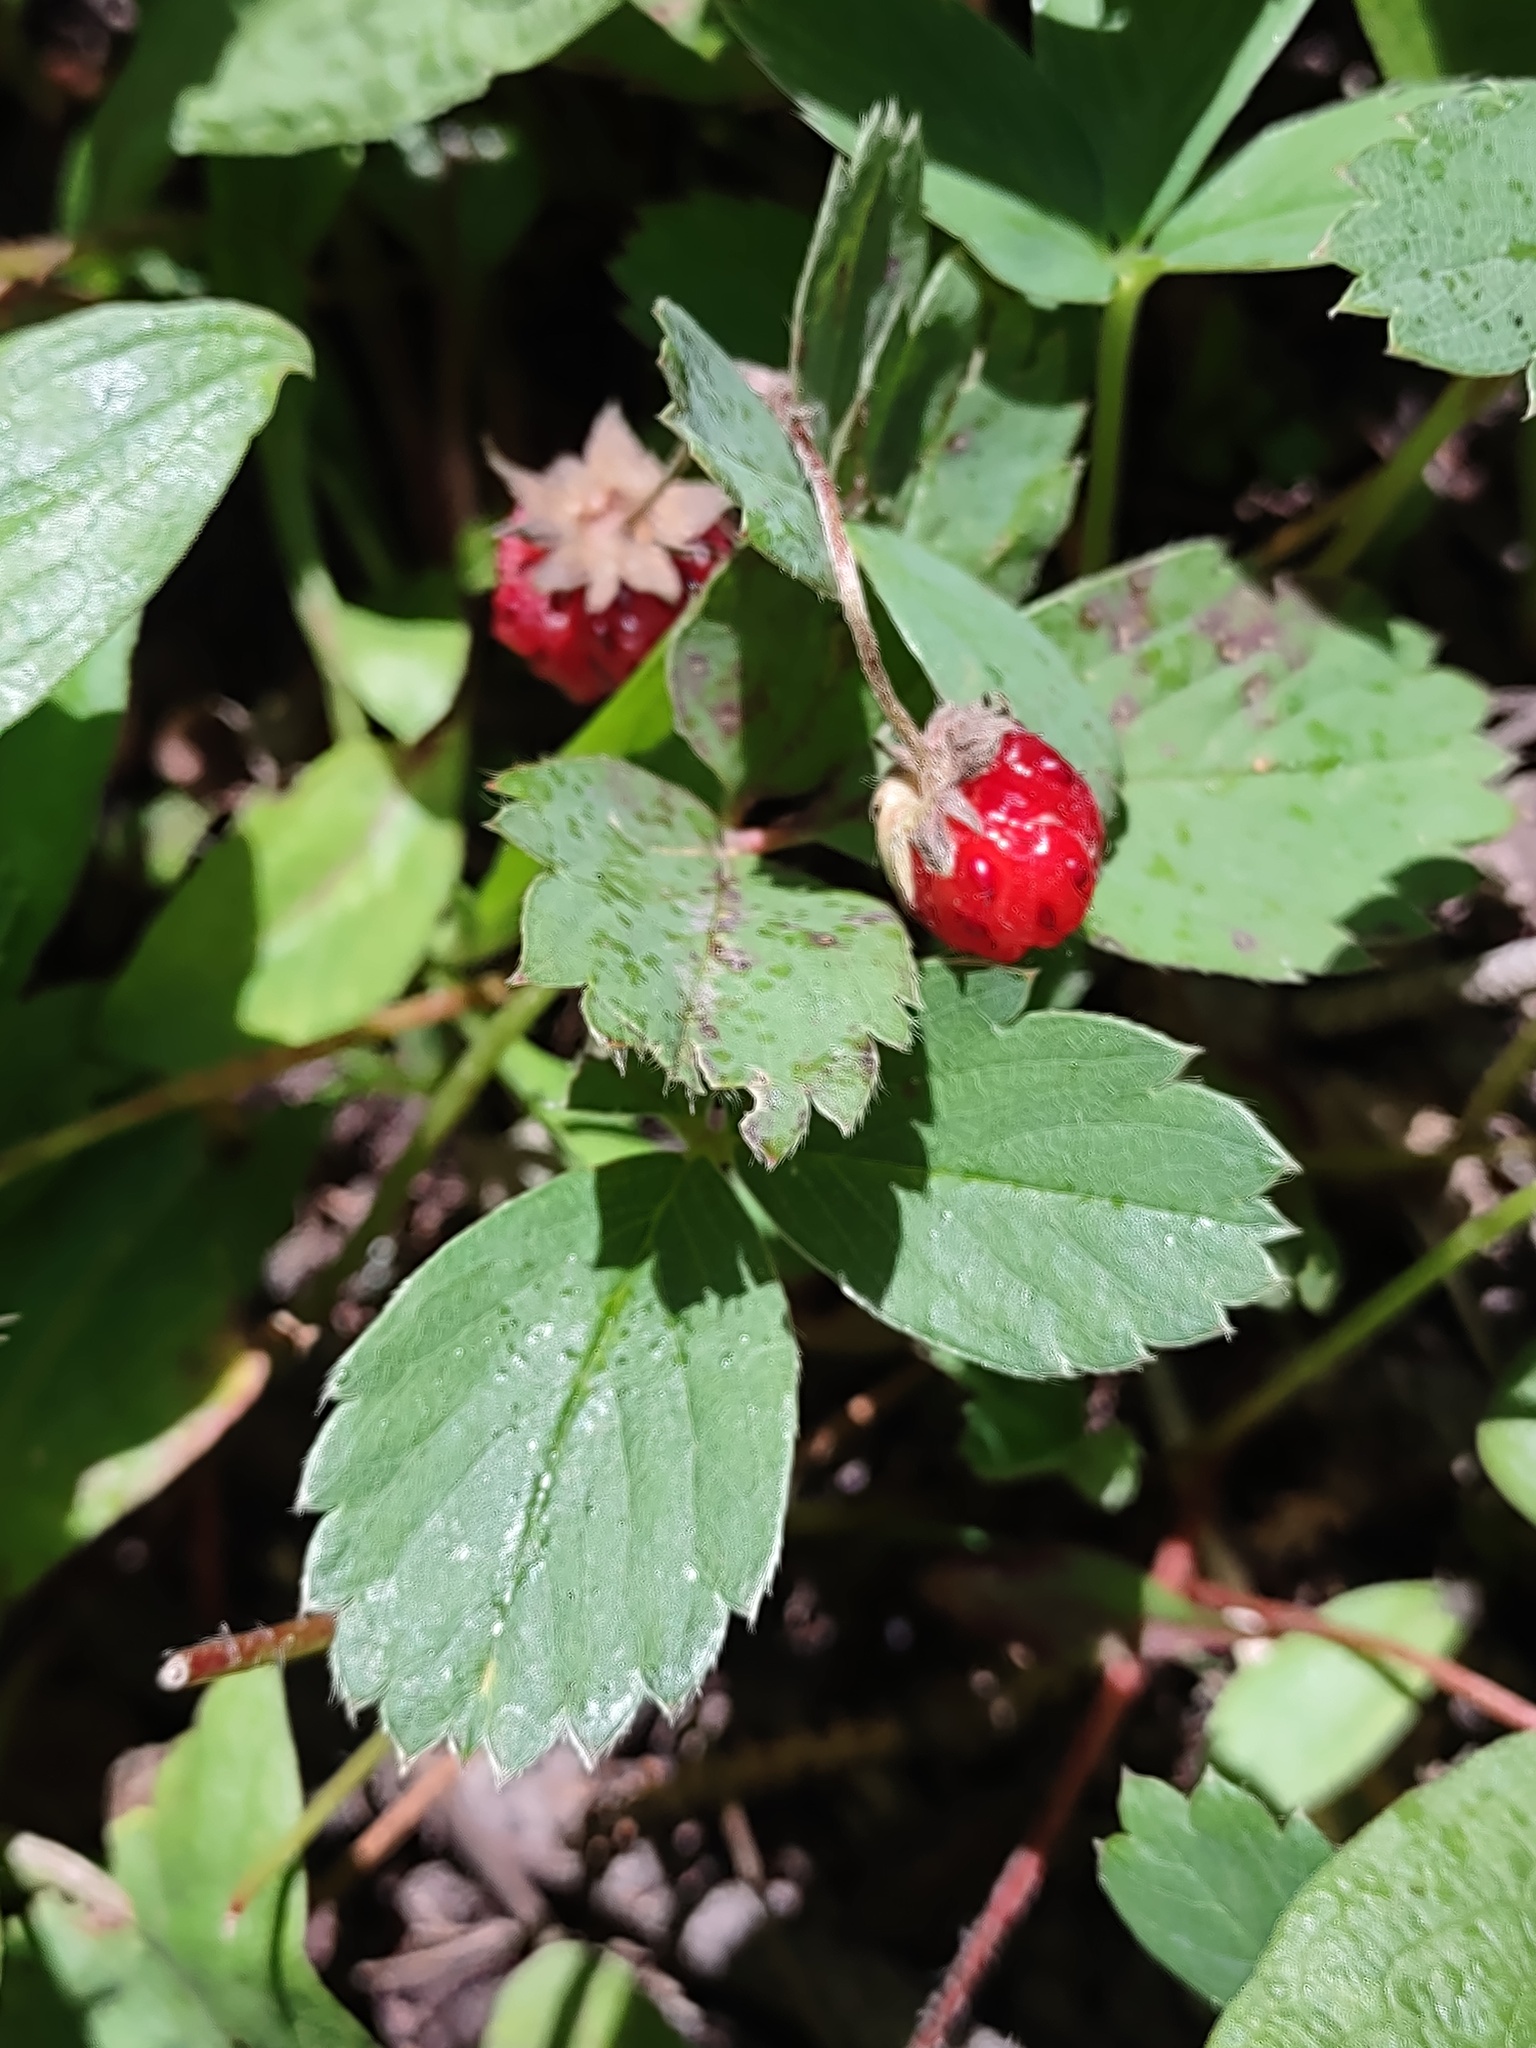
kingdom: Plantae
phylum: Tracheophyta
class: Magnoliopsida
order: Rosales
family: Rosaceae
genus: Fragaria
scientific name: Fragaria virginiana
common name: Thickleaved wild strawberry
